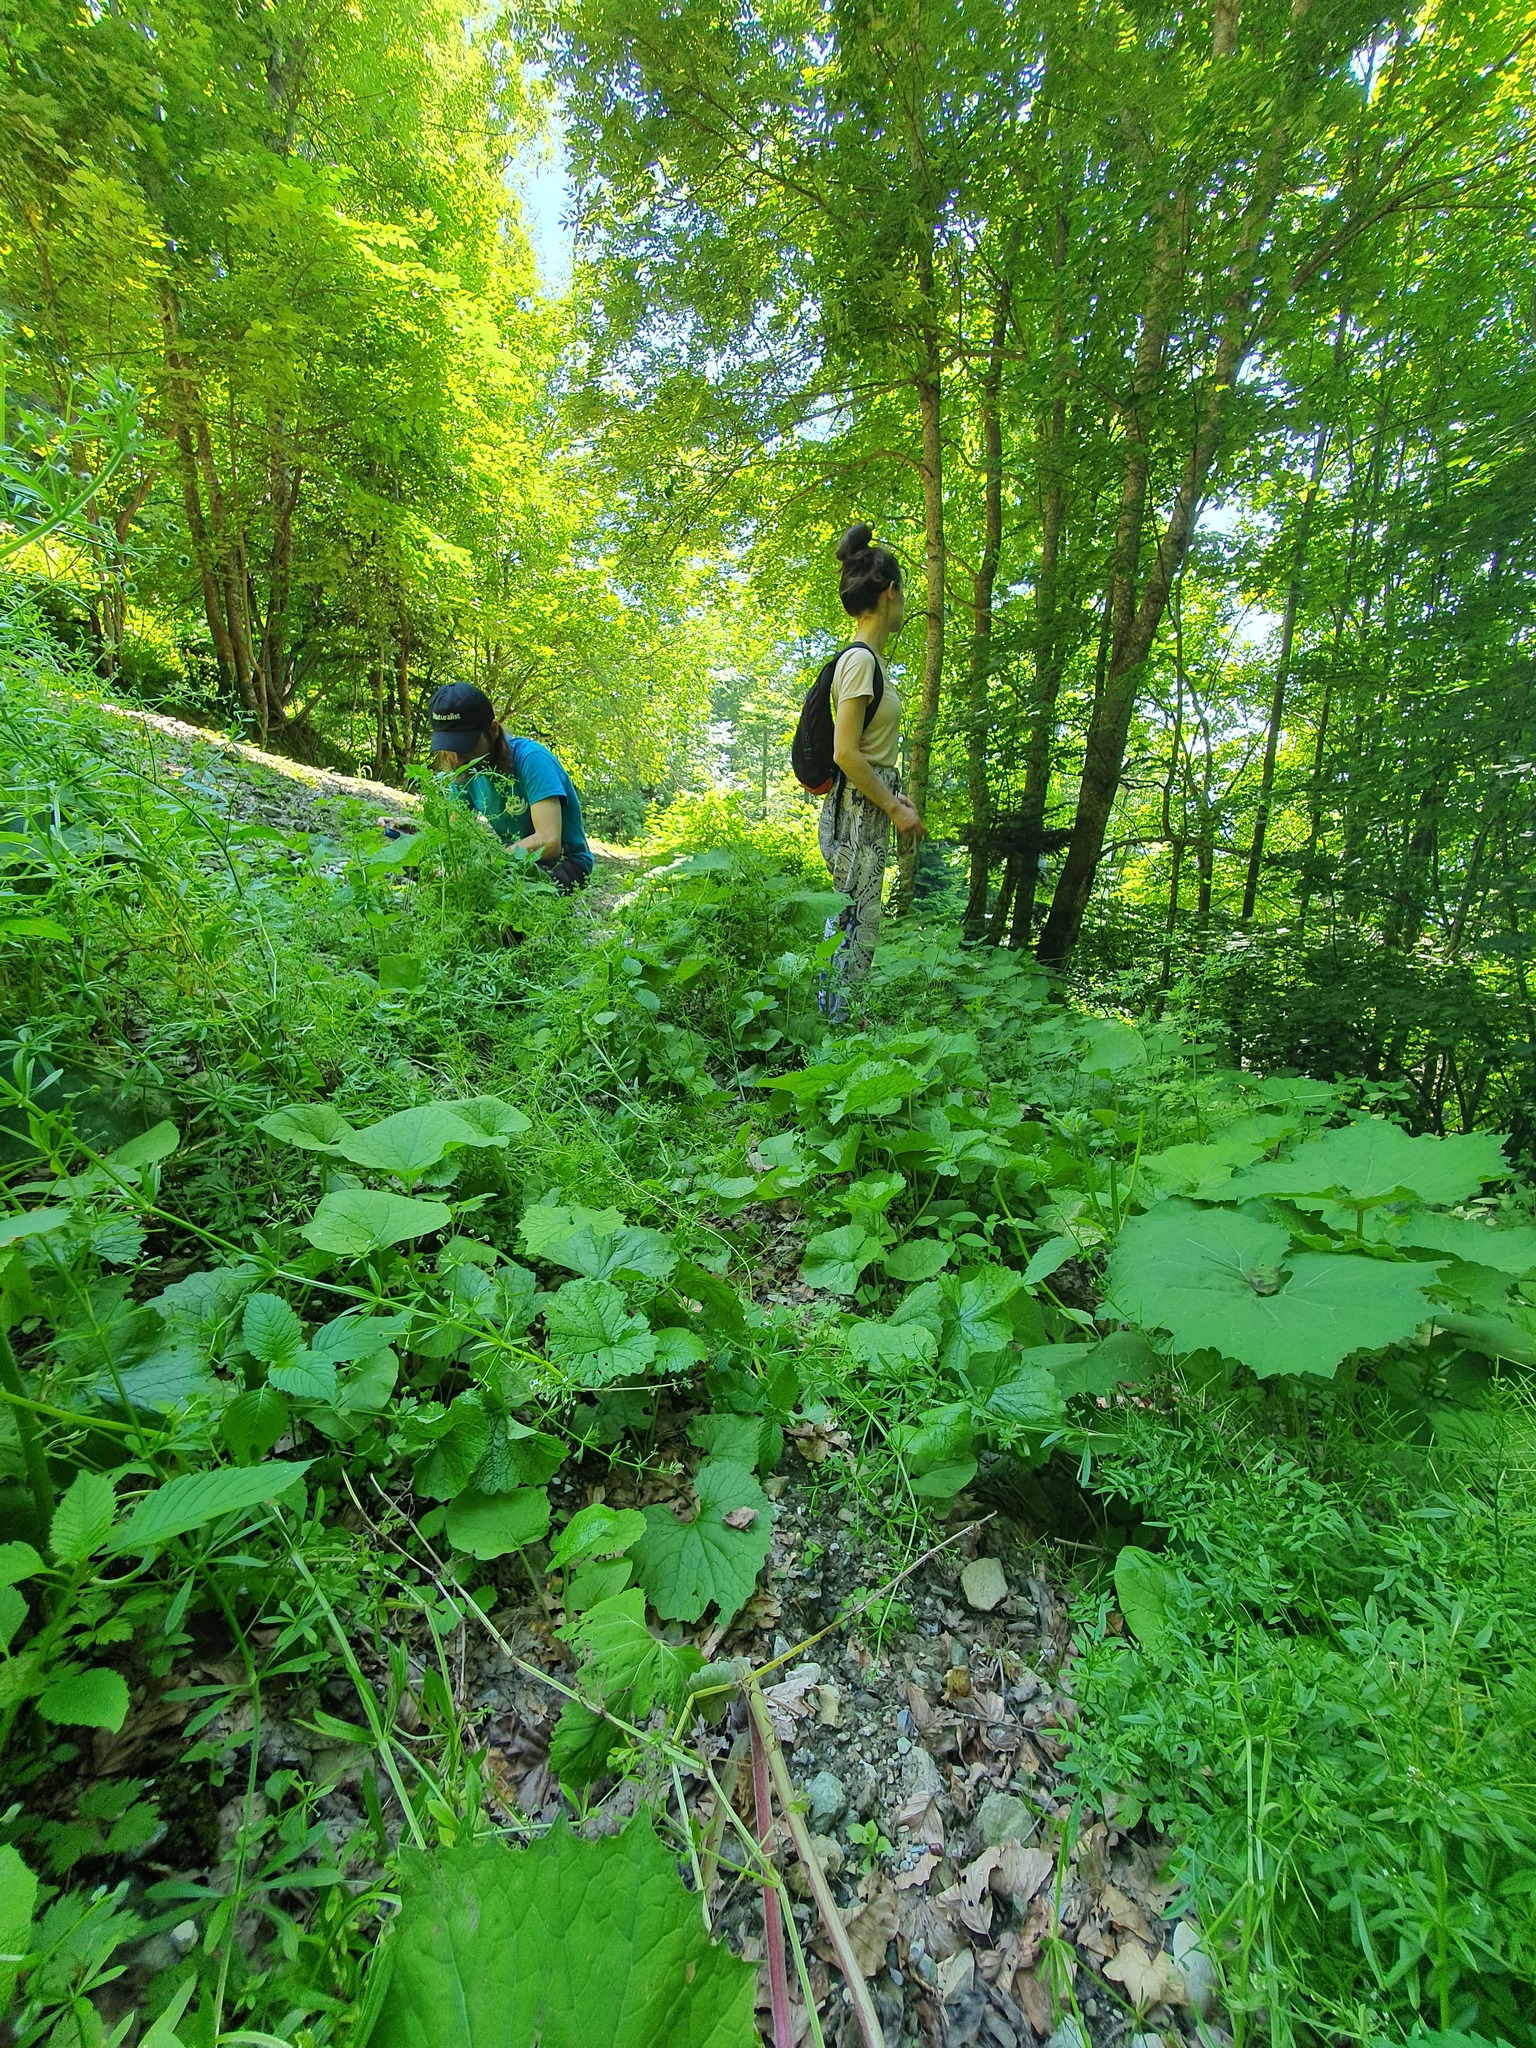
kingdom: Animalia
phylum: Arthropoda
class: Insecta
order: Orthoptera
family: Tetrigidae
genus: Tetrix
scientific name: Tetrix transsylvanica
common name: Transsylvanian wingless groundhopper
